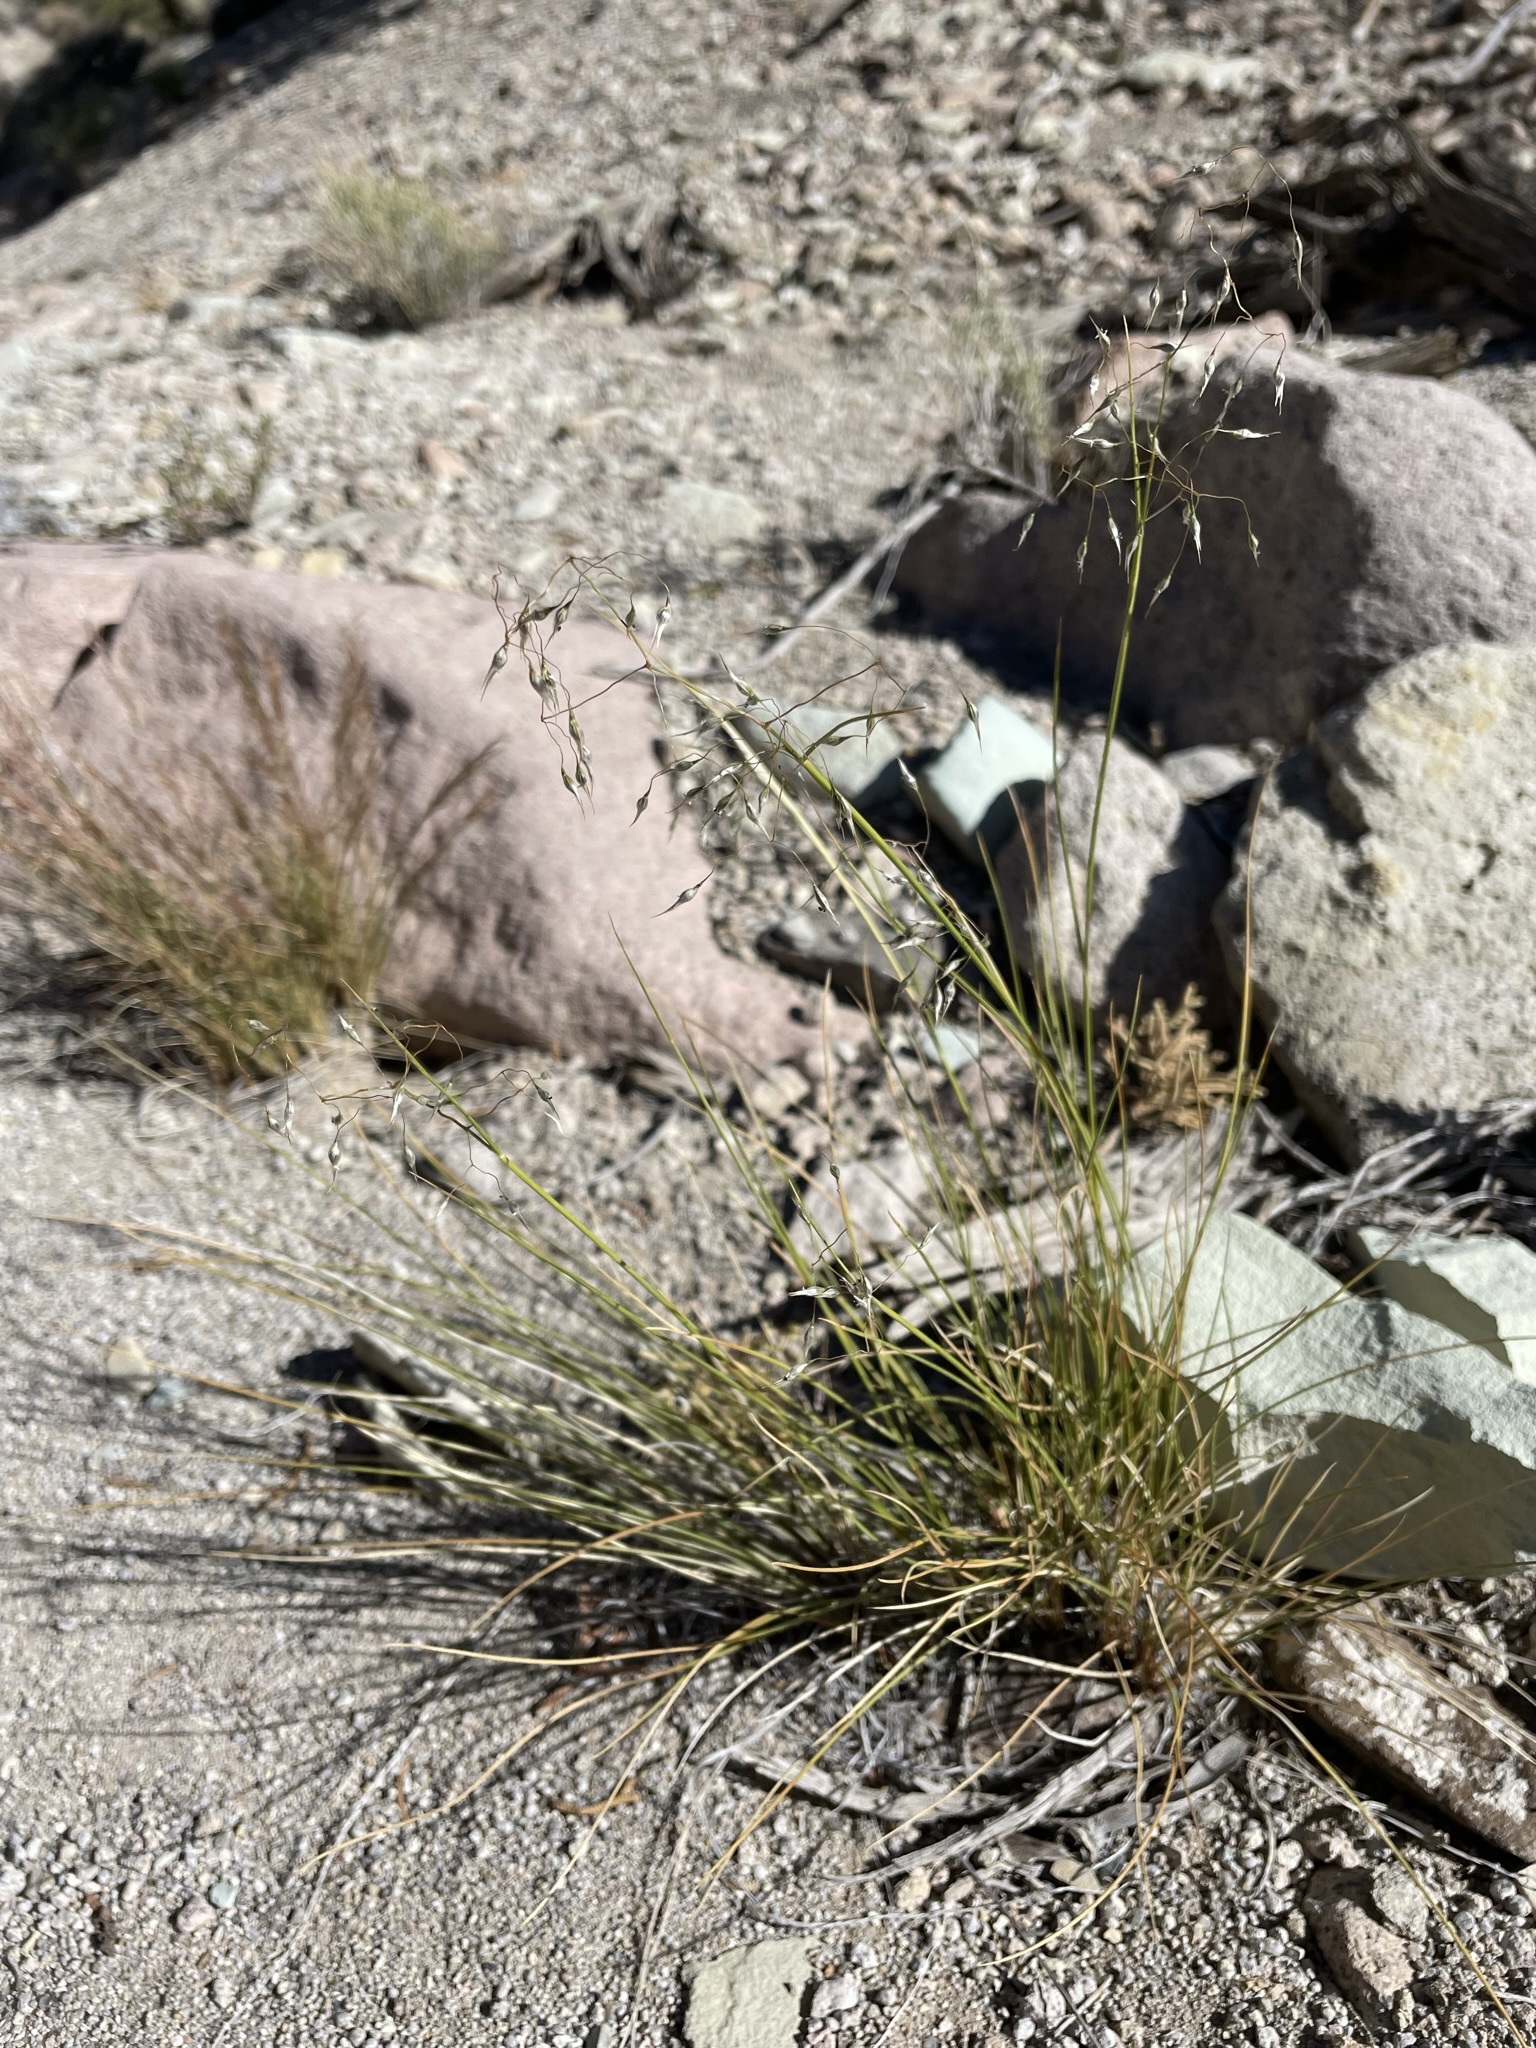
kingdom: Plantae
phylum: Tracheophyta
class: Liliopsida
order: Poales
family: Poaceae
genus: Eriocoma
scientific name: Eriocoma hymenoides
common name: Indian mountain ricegrass
